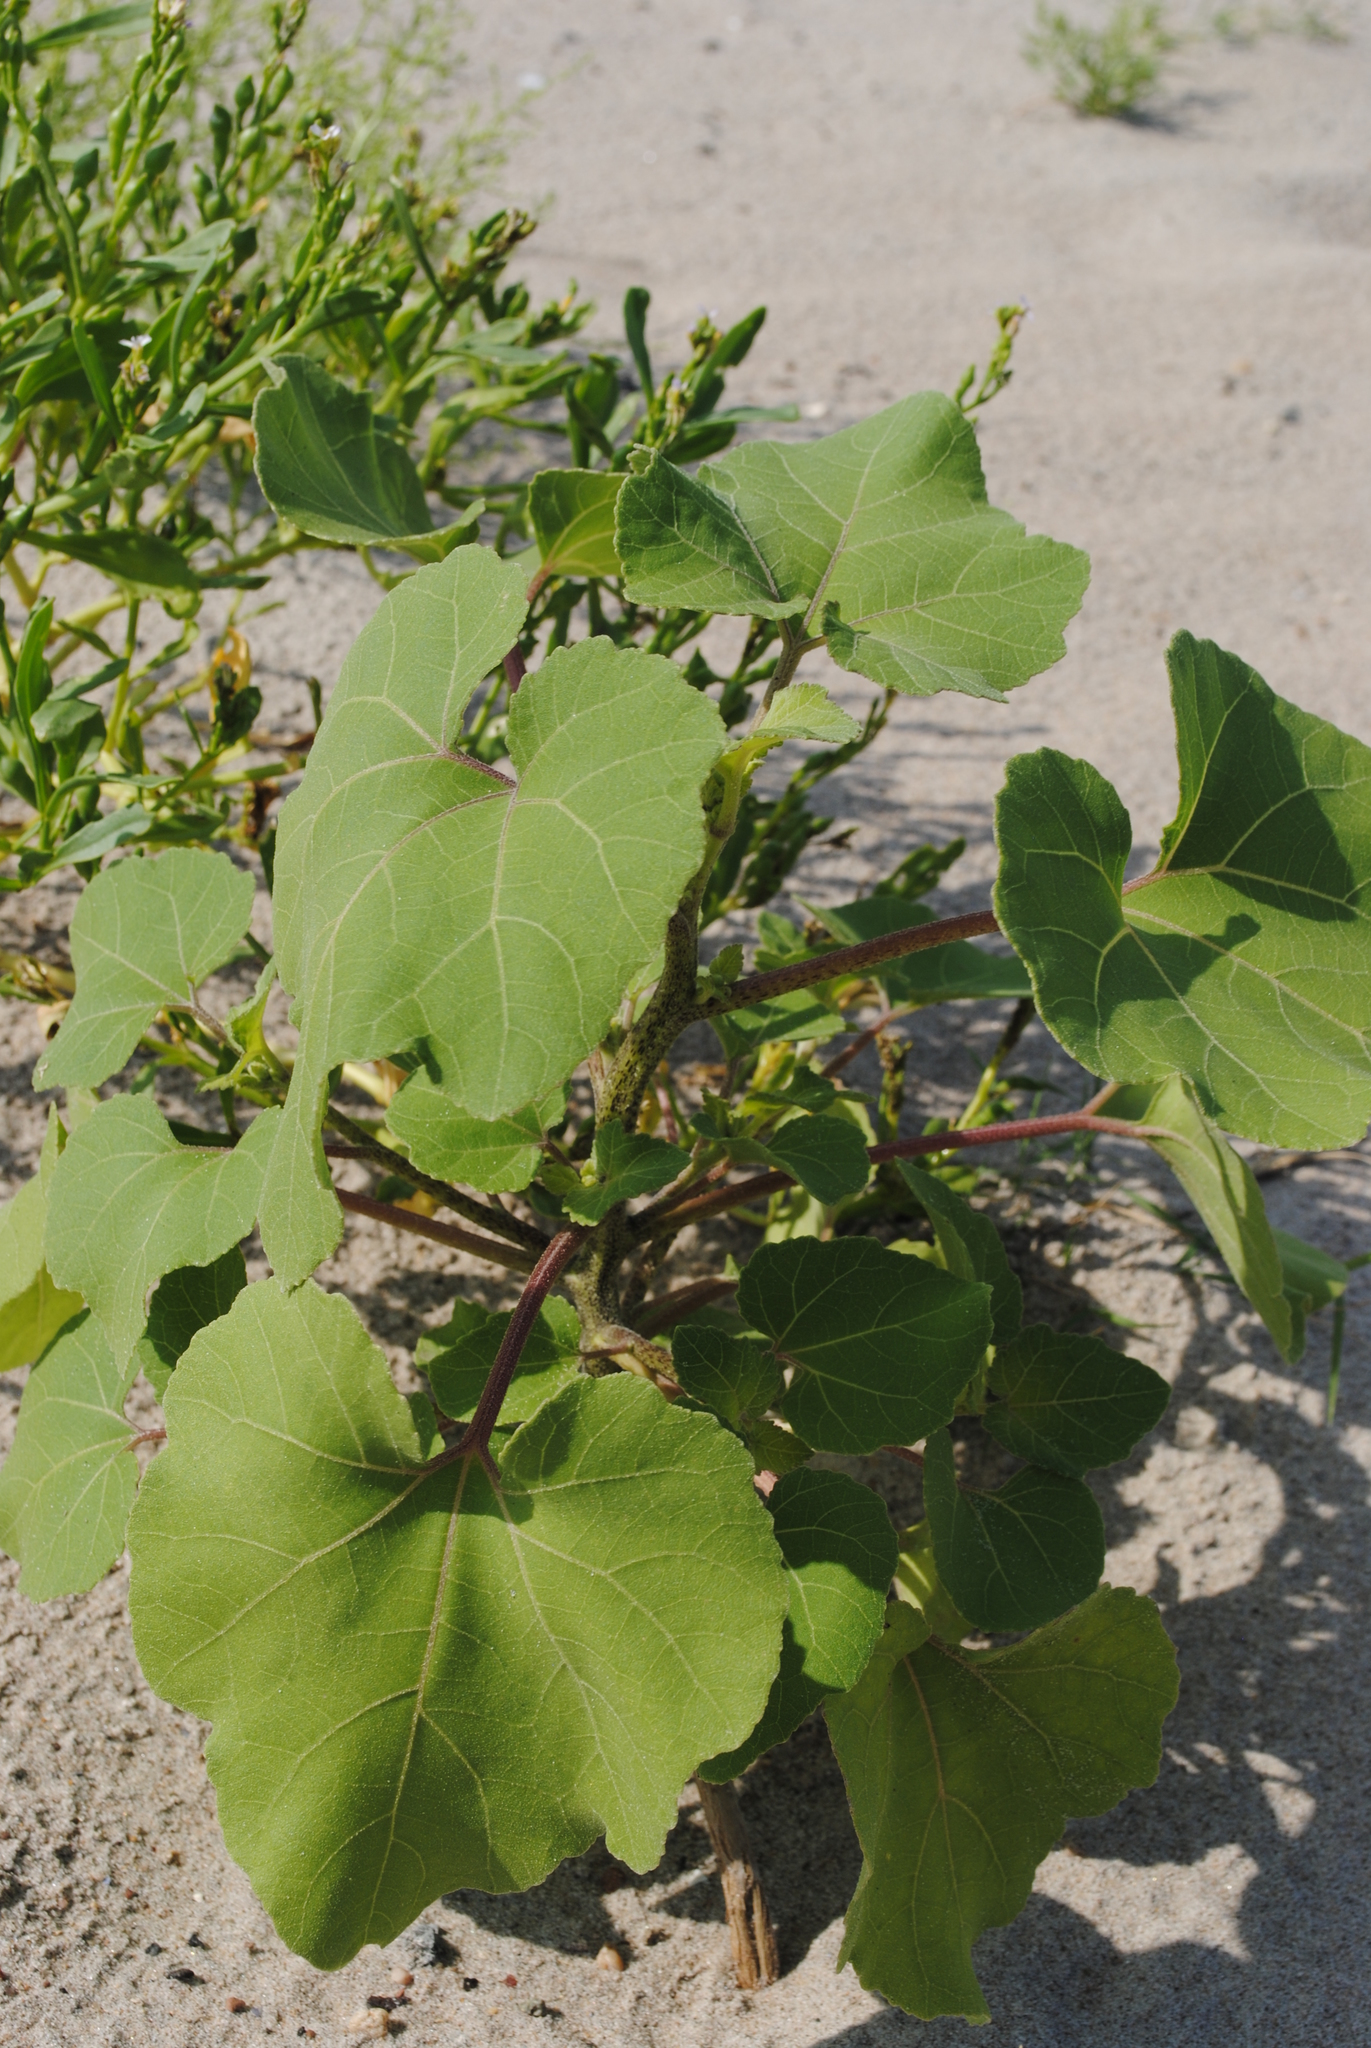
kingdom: Plantae
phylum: Tracheophyta
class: Magnoliopsida
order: Asterales
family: Asteraceae
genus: Xanthium
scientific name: Xanthium strumarium
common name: Rough cocklebur
